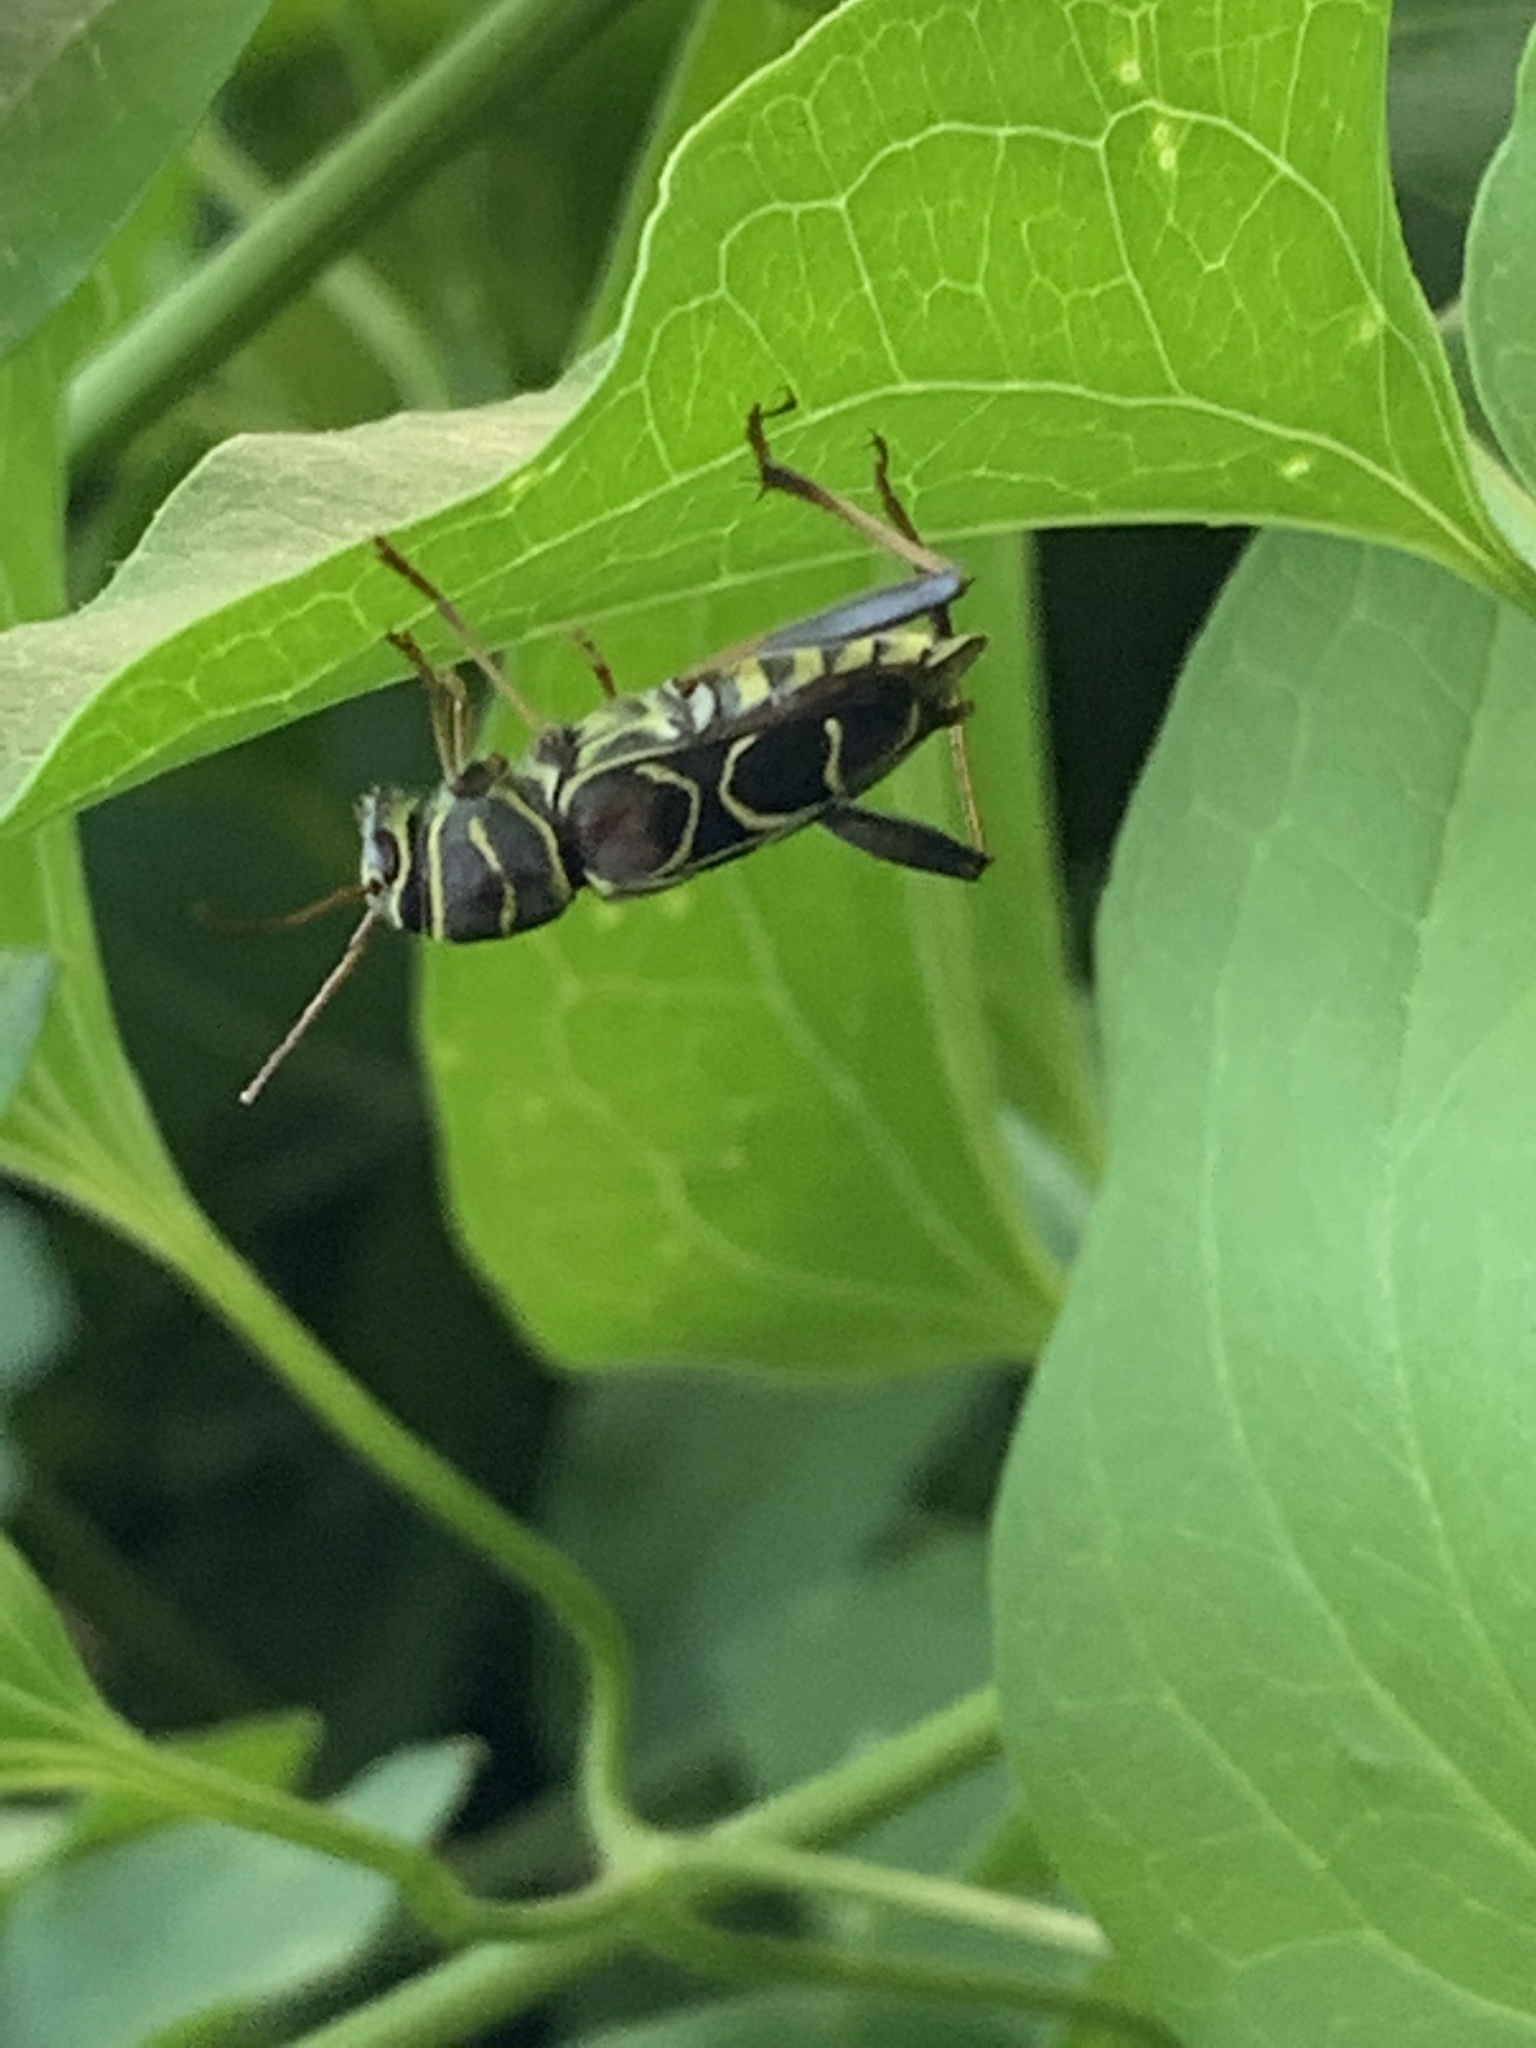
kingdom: Animalia
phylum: Arthropoda
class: Insecta
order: Coleoptera
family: Cerambycidae
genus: Neoclytus
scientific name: Neoclytus scutellaris
